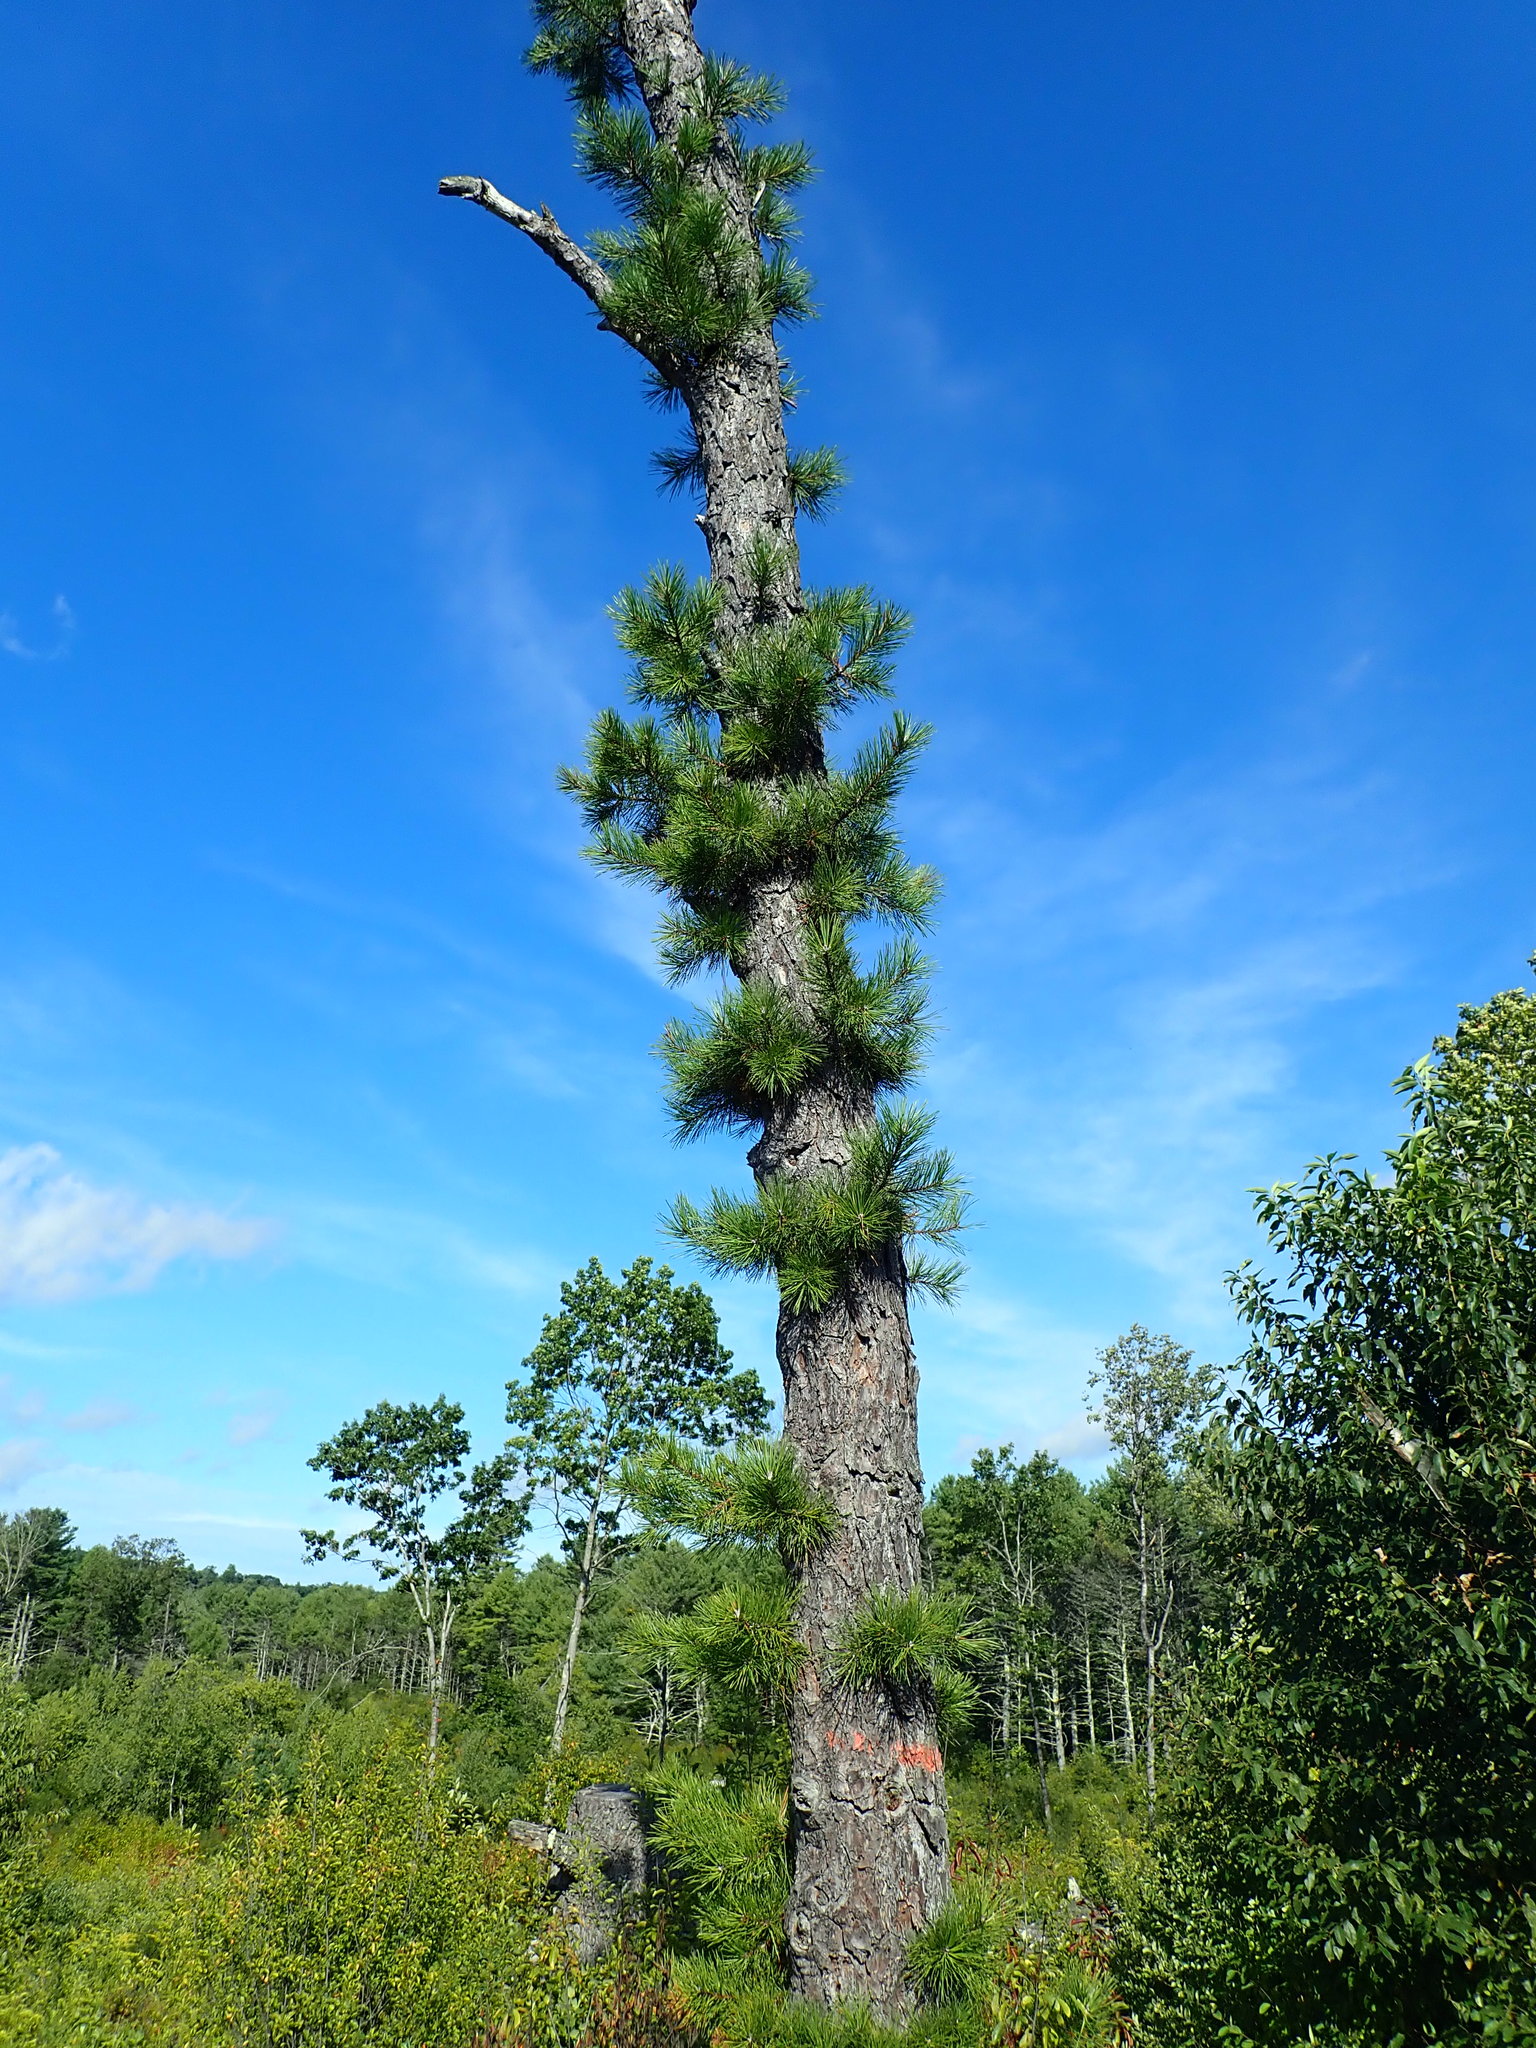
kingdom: Plantae
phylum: Tracheophyta
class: Pinopsida
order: Pinales
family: Pinaceae
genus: Pinus
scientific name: Pinus rigida
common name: Pitch pine
